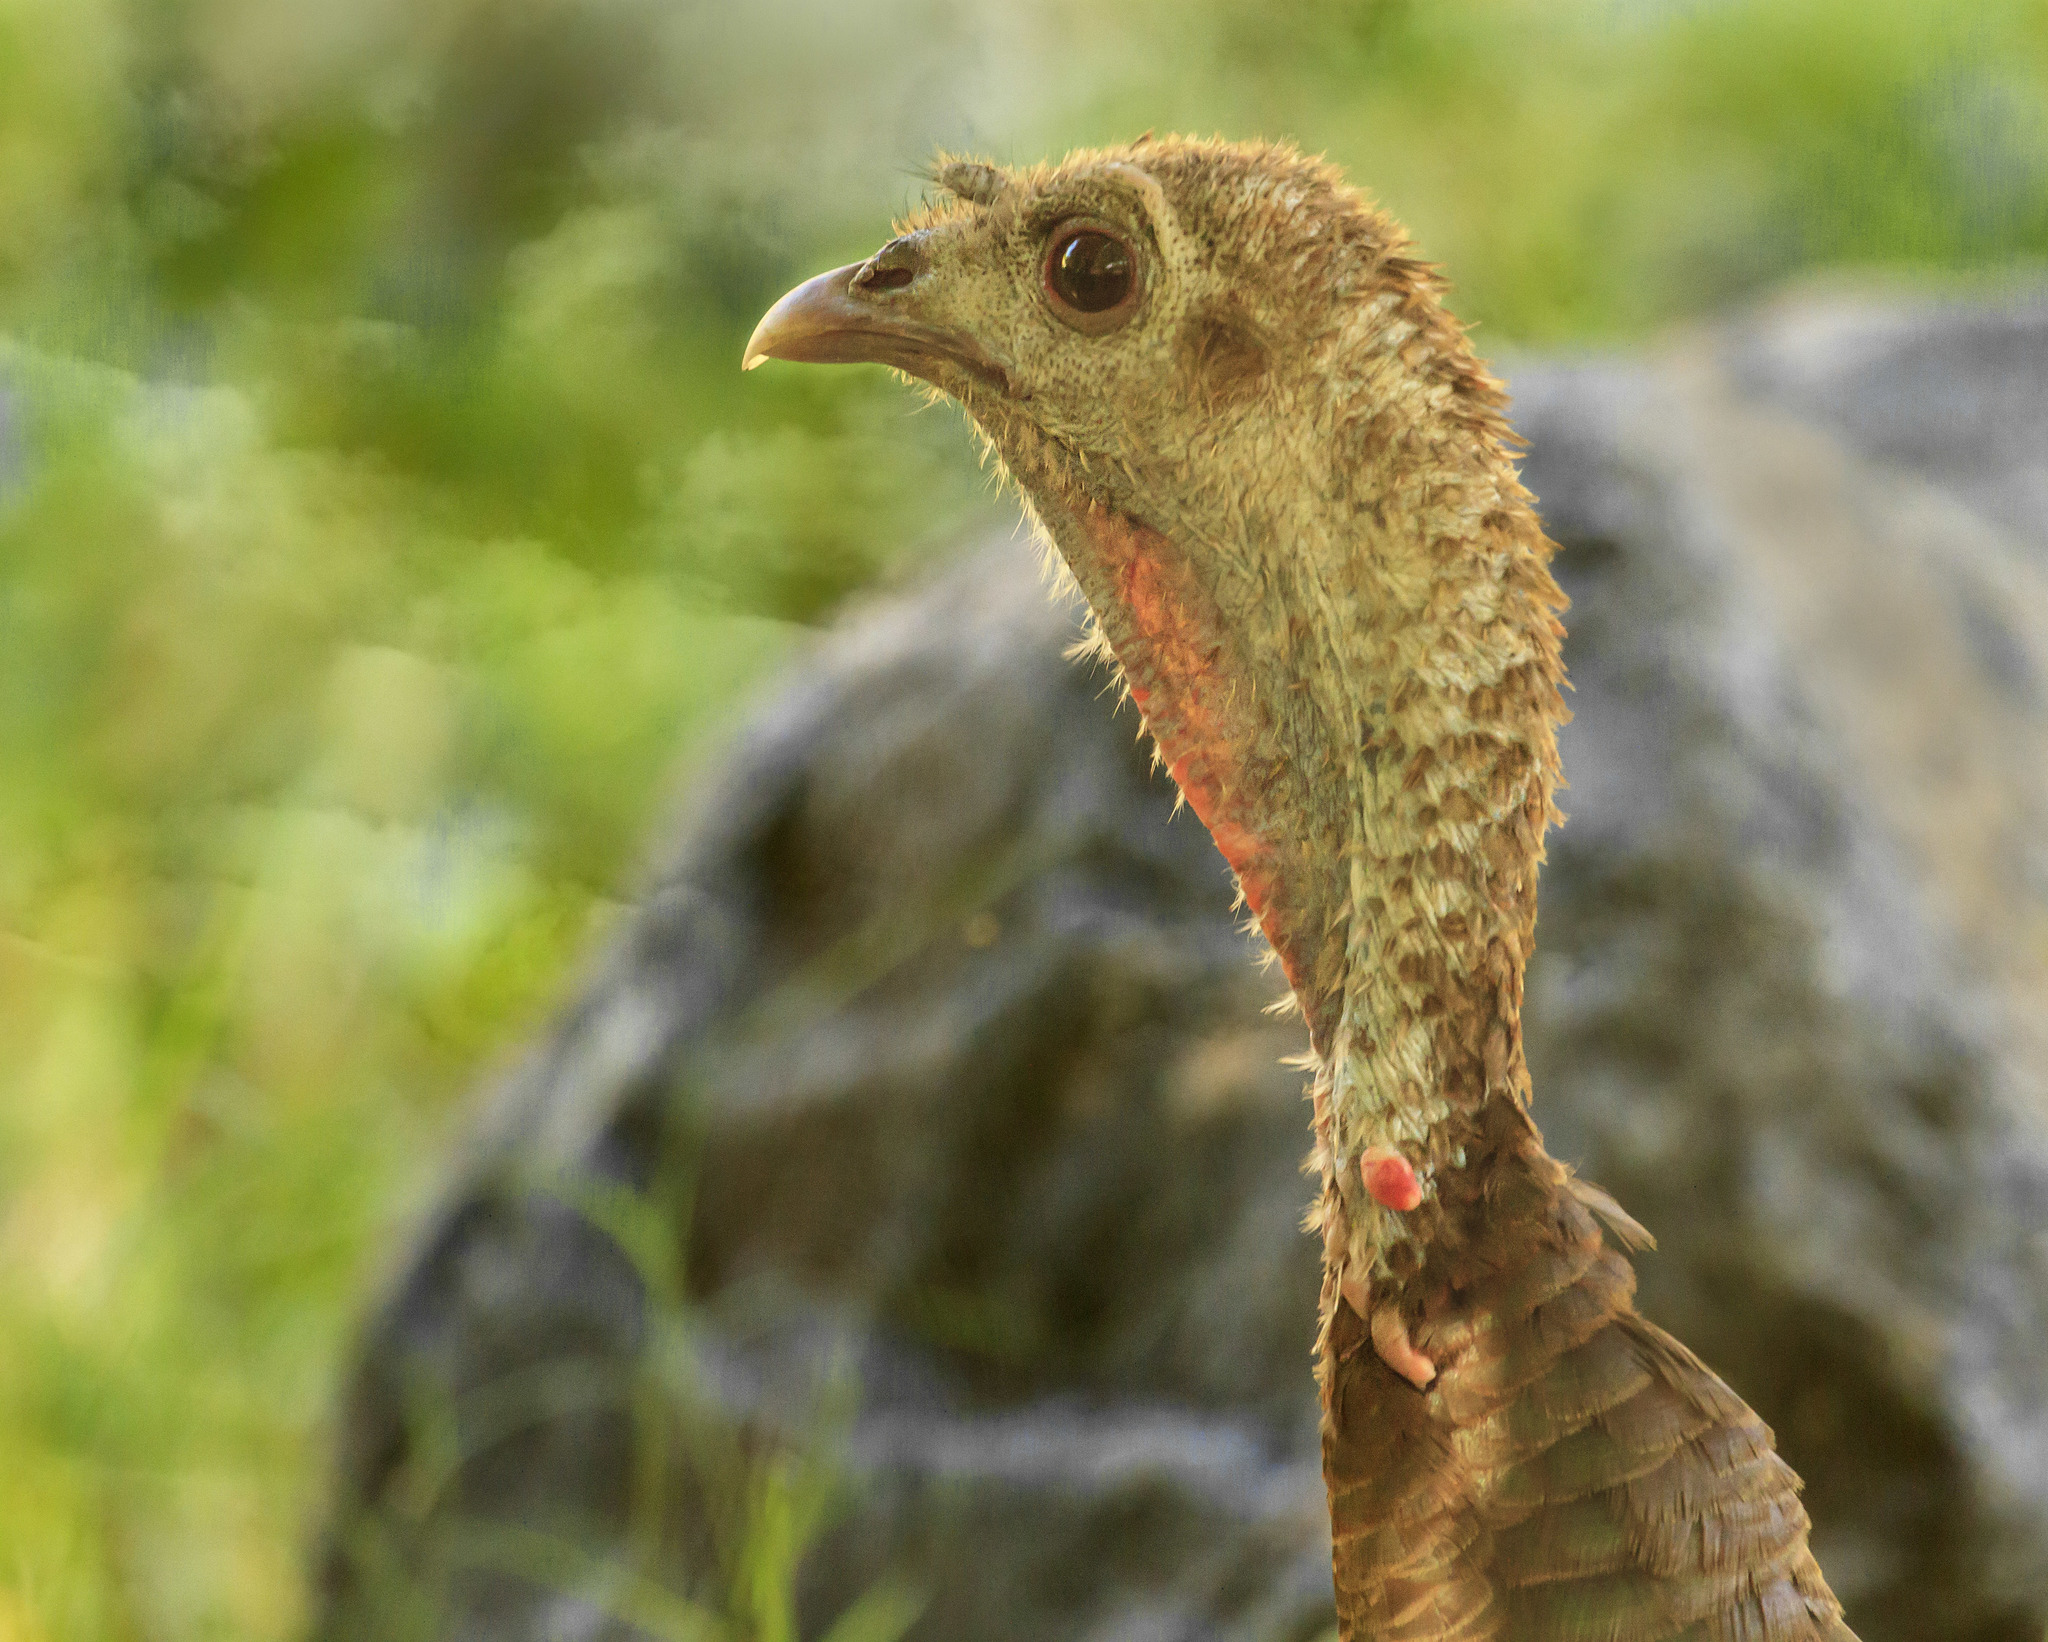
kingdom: Animalia
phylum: Chordata
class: Aves
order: Galliformes
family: Phasianidae
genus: Meleagris
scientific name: Meleagris gallopavo
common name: Wild turkey
